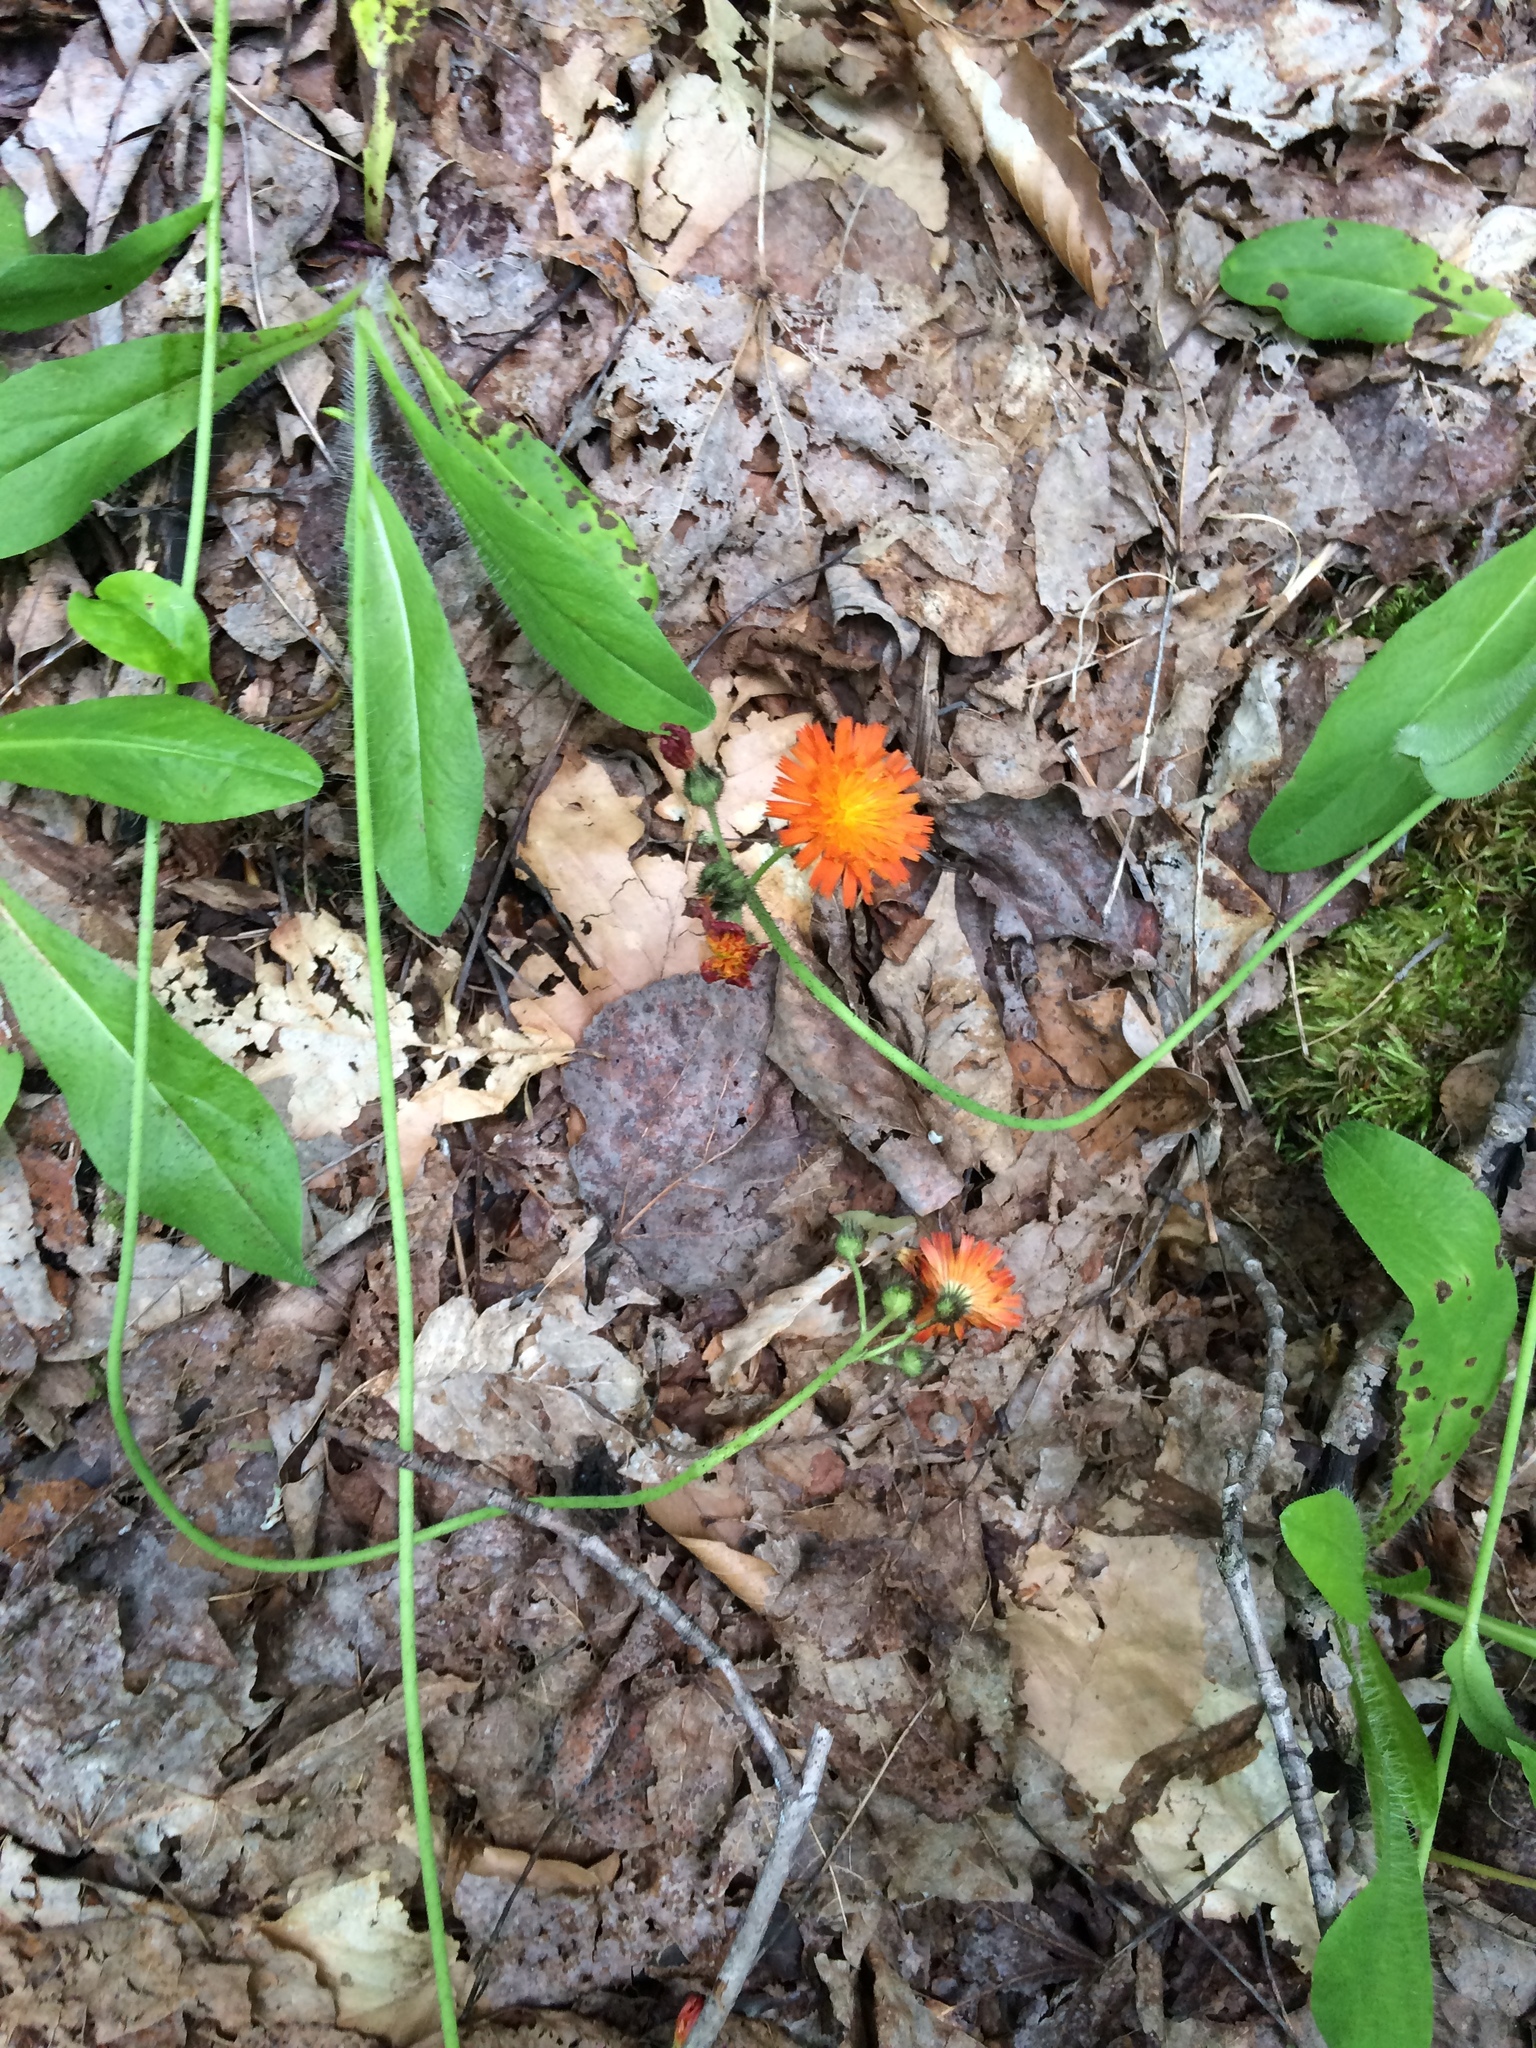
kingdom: Plantae
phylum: Tracheophyta
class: Magnoliopsida
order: Asterales
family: Asteraceae
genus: Pilosella
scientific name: Pilosella aurantiaca
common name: Fox-and-cubs
